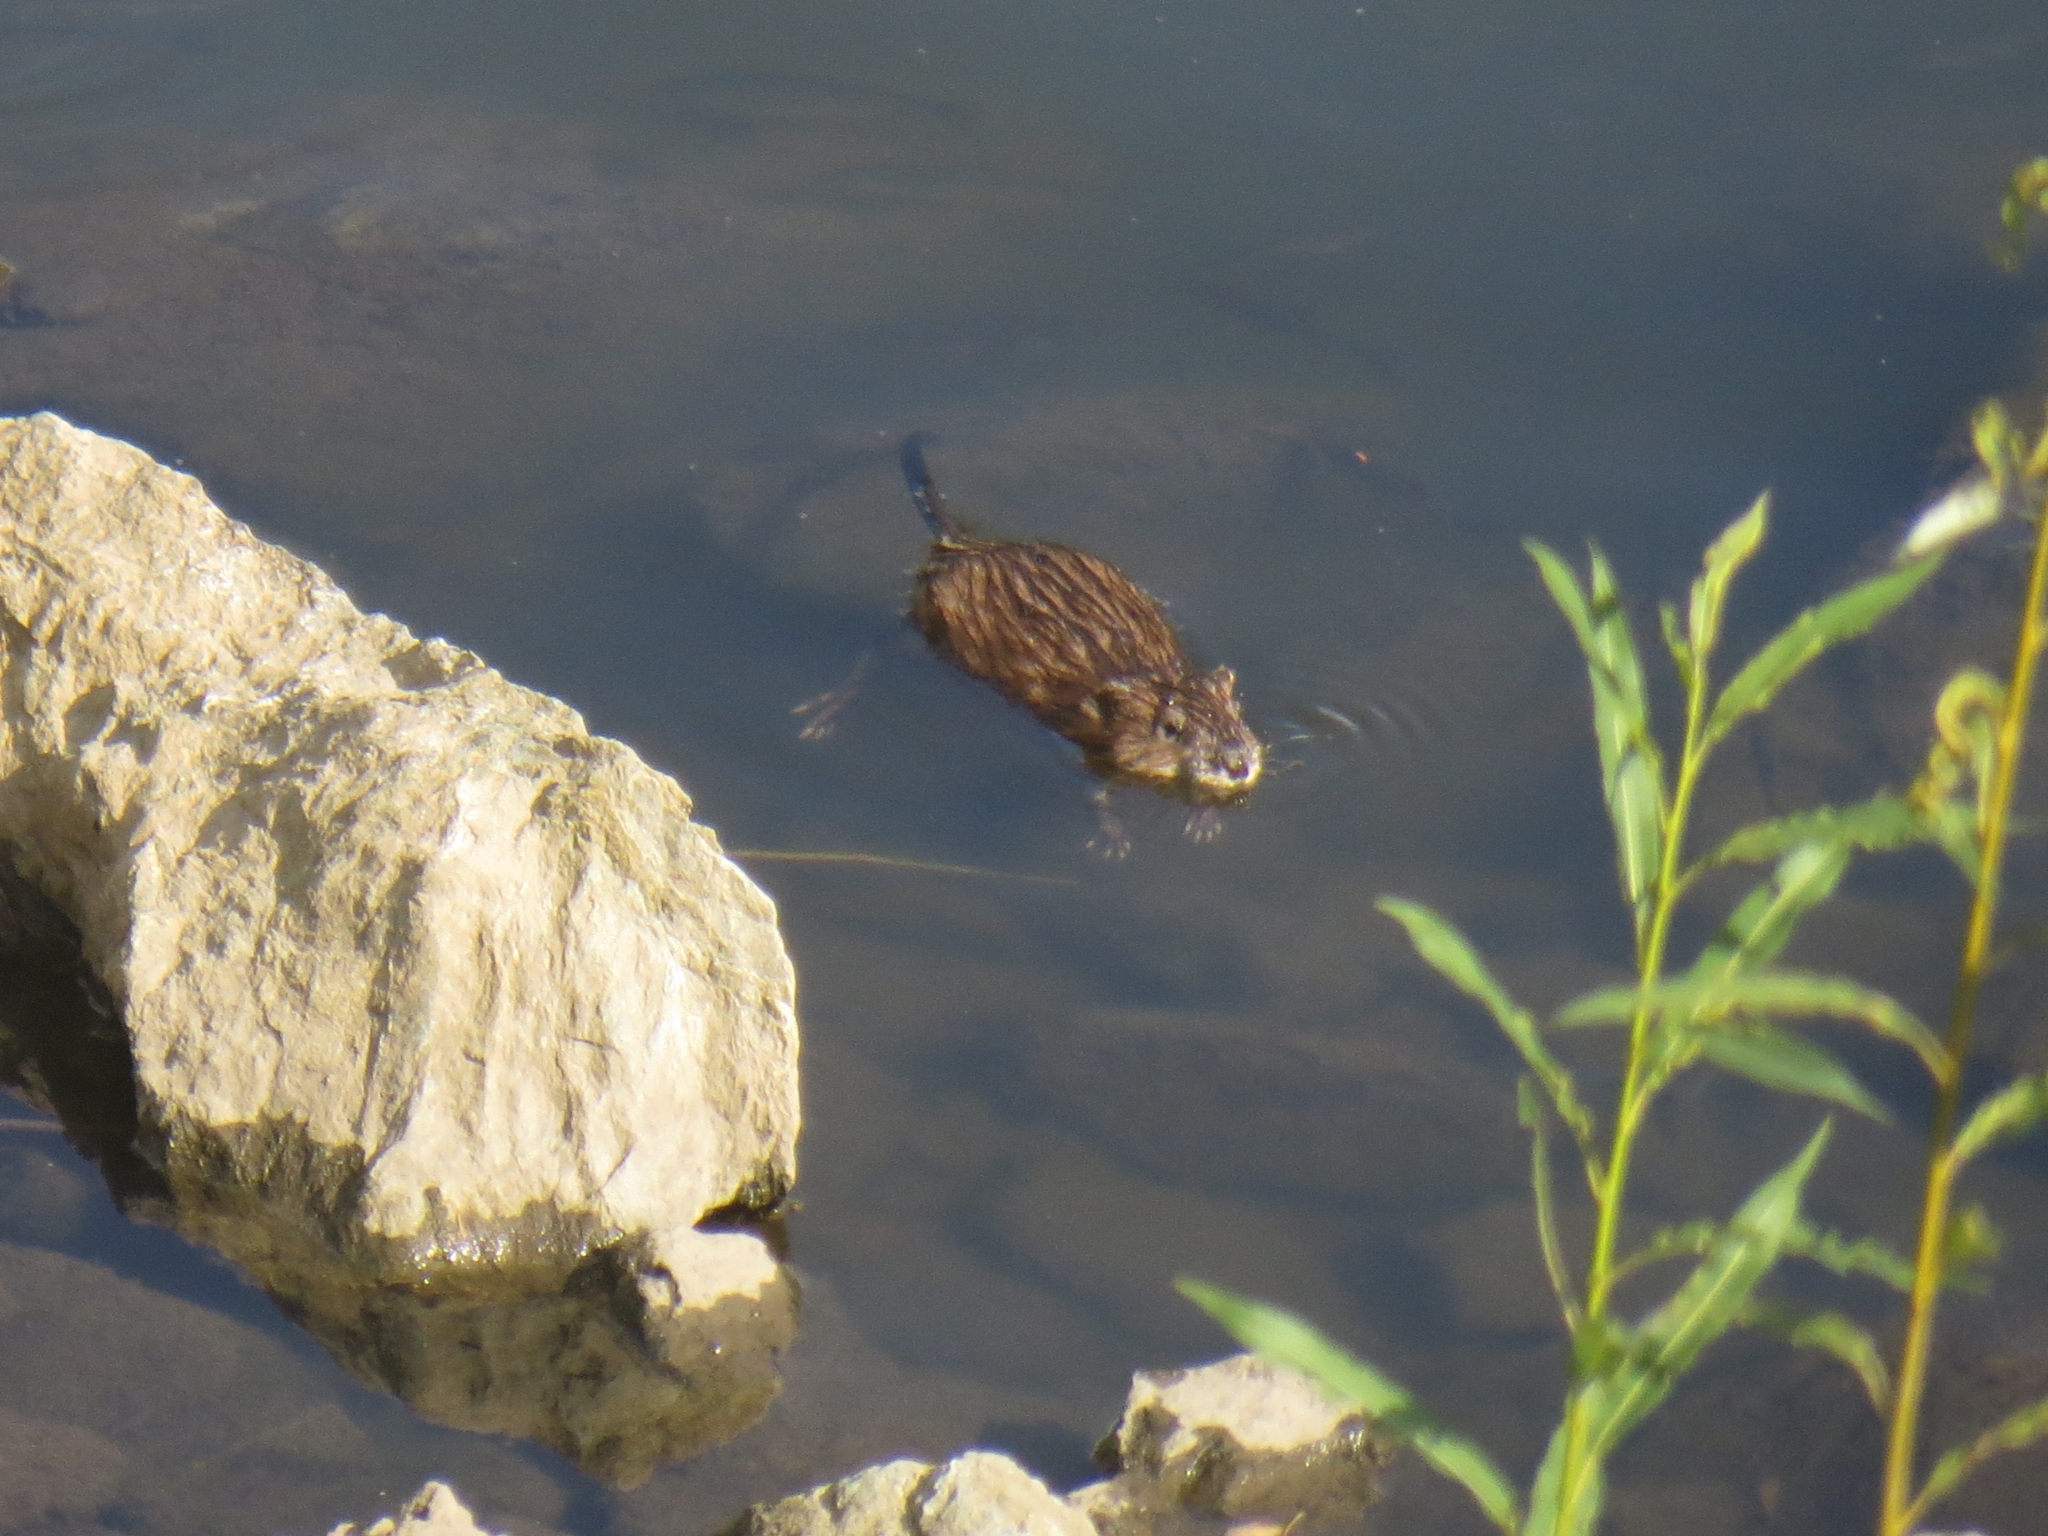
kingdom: Animalia
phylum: Chordata
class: Mammalia
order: Rodentia
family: Cricetidae
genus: Ondatra
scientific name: Ondatra zibethicus
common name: Muskrat
